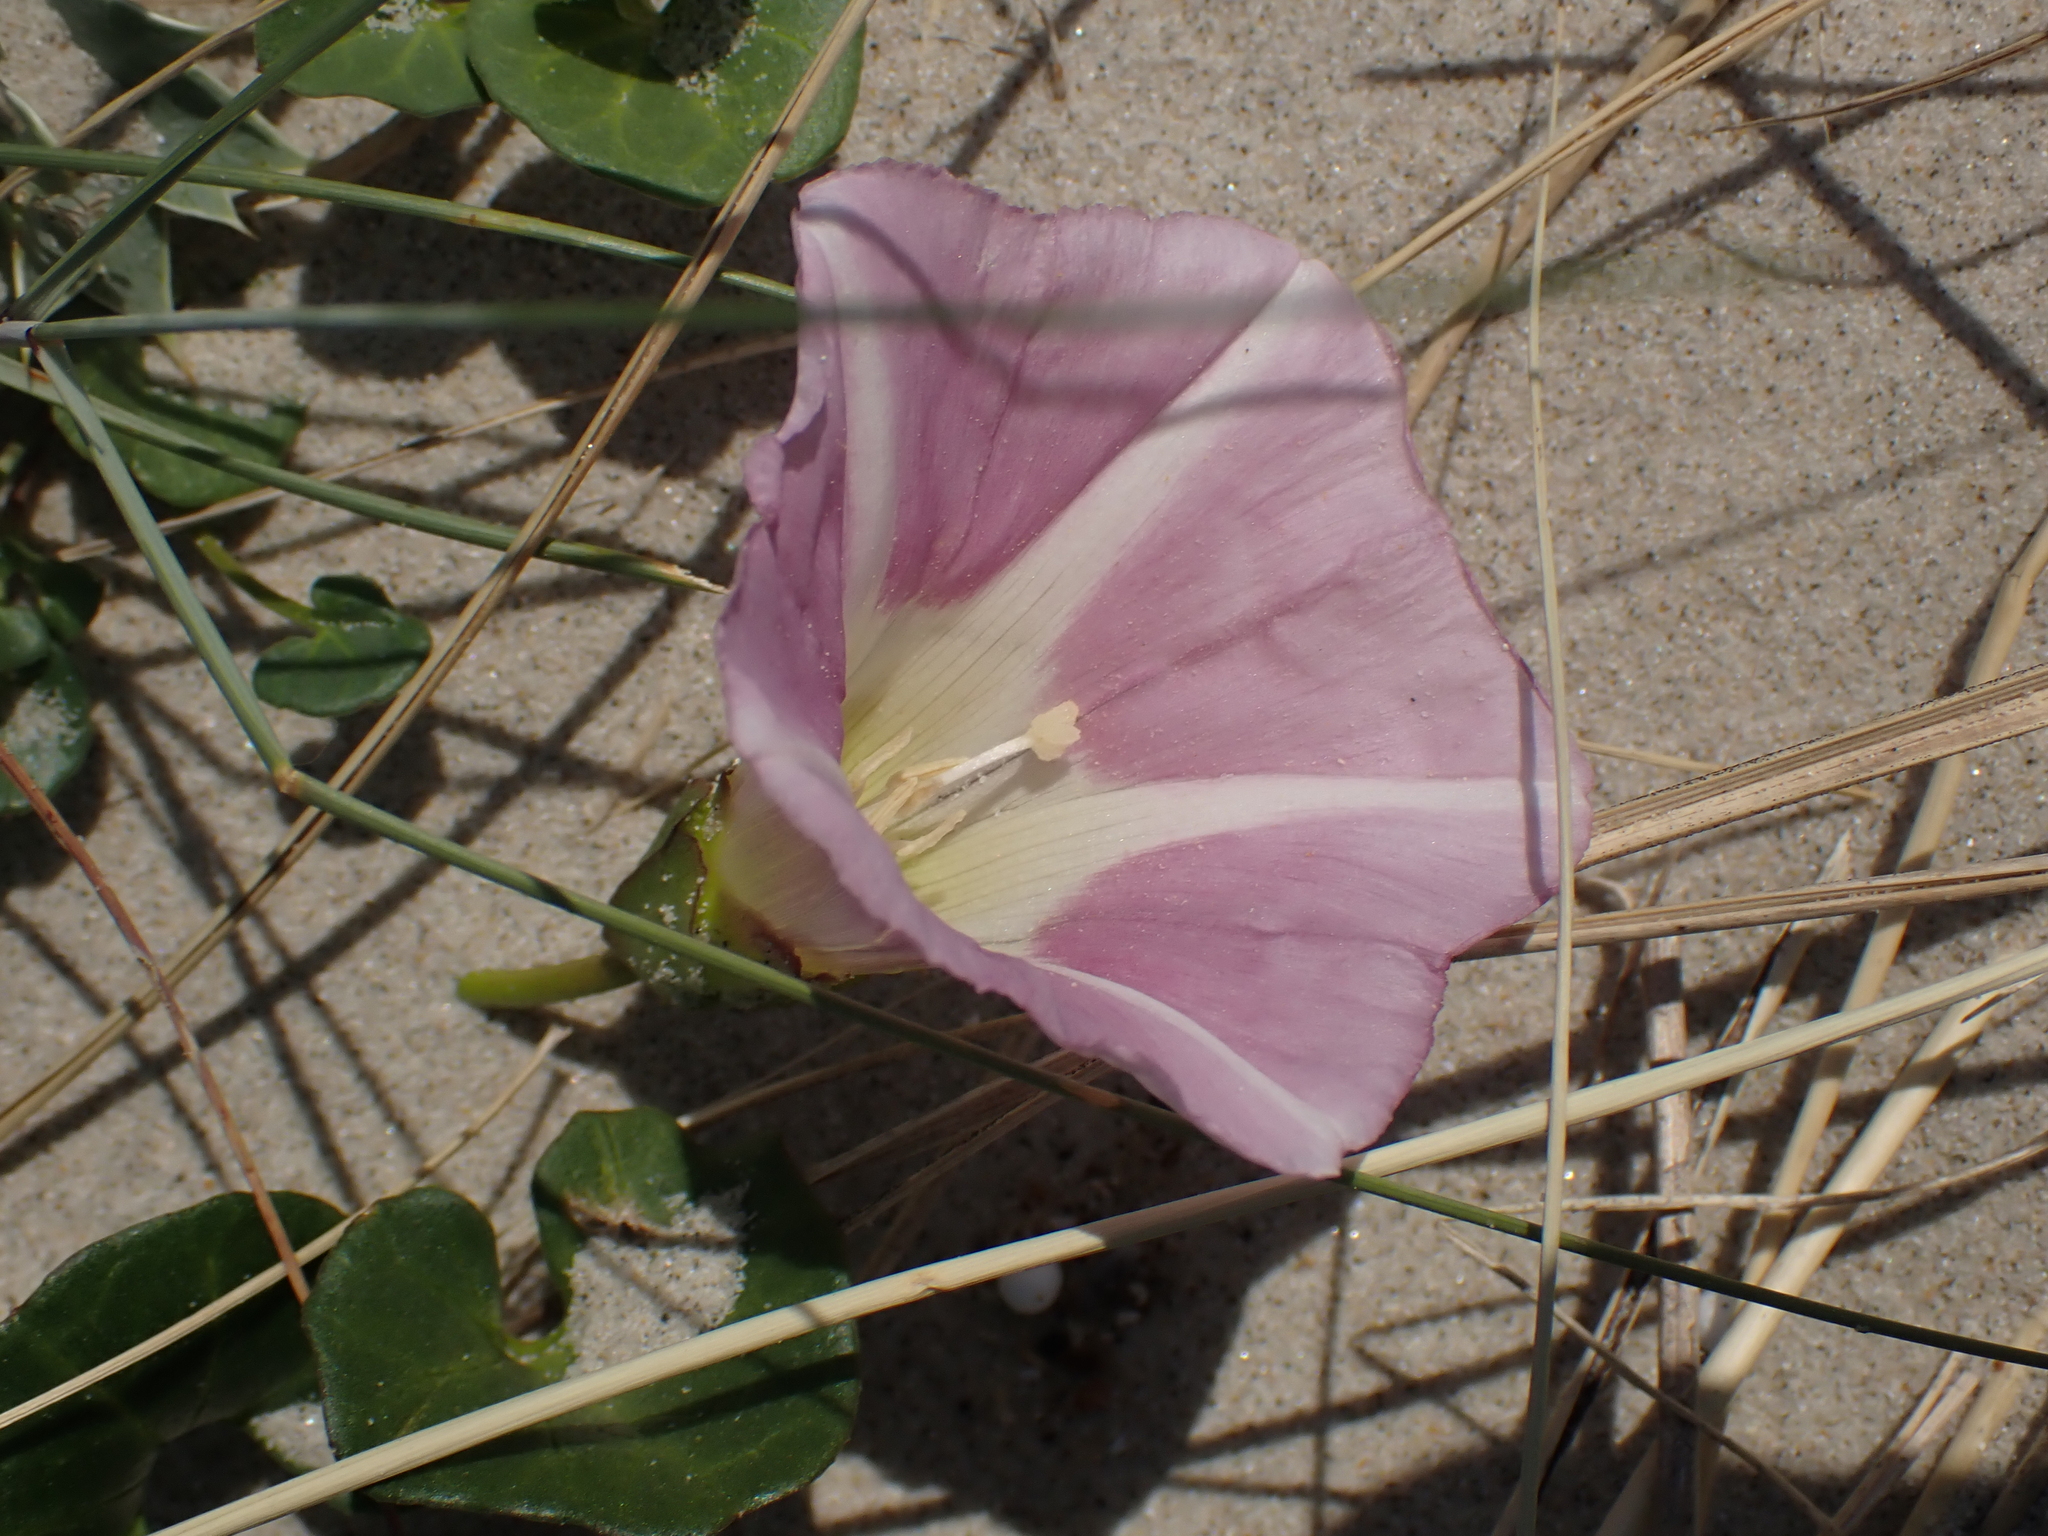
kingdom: Plantae
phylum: Tracheophyta
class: Magnoliopsida
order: Solanales
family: Convolvulaceae
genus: Calystegia
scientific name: Calystegia soldanella
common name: Sea bindweed
